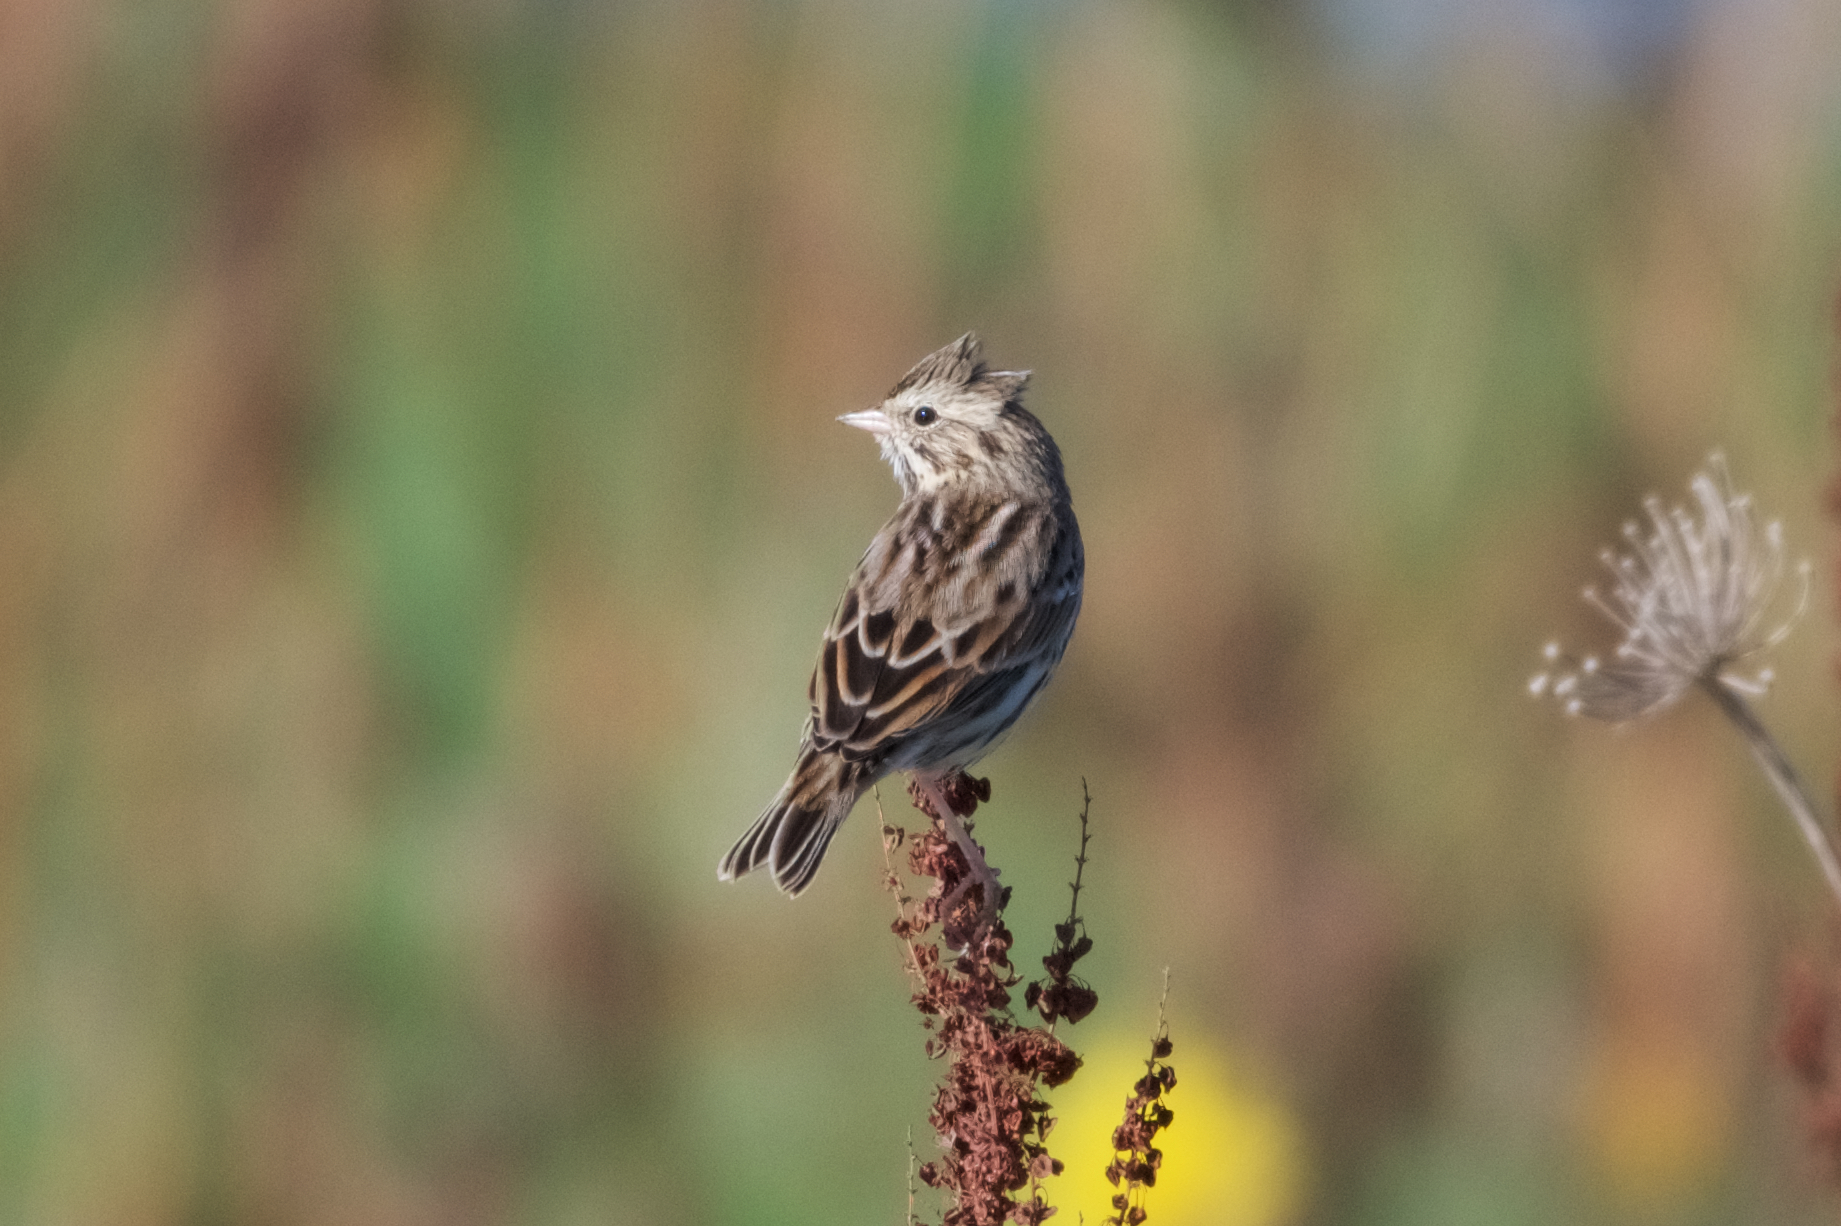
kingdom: Animalia
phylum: Chordata
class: Aves
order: Passeriformes
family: Passerellidae
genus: Passerculus
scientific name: Passerculus sandwichensis
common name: Savannah sparrow
